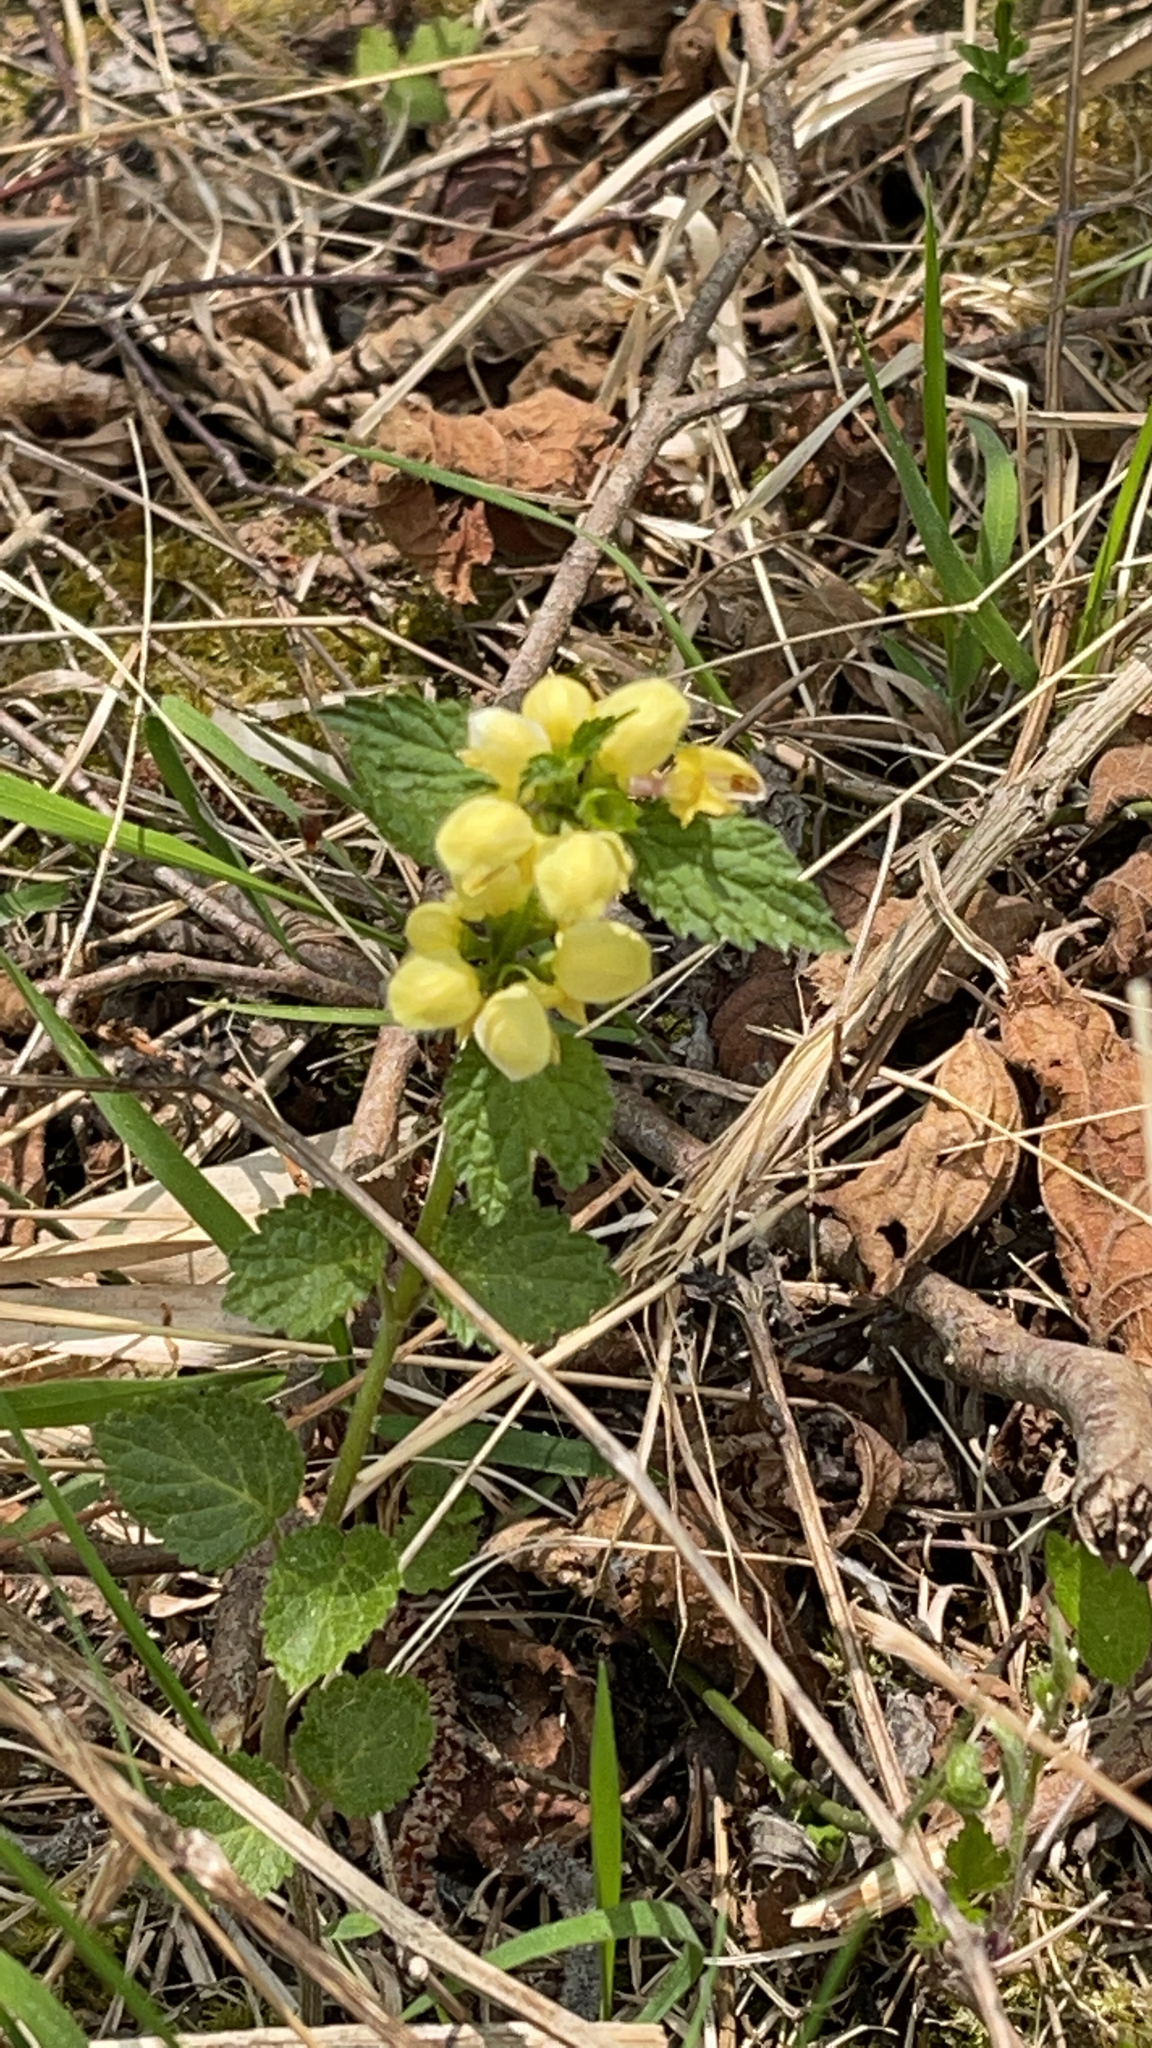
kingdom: Plantae
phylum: Tracheophyta
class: Magnoliopsida
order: Lamiales
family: Lamiaceae
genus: Lamium
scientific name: Lamium galeobdolon
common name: Yellow archangel
